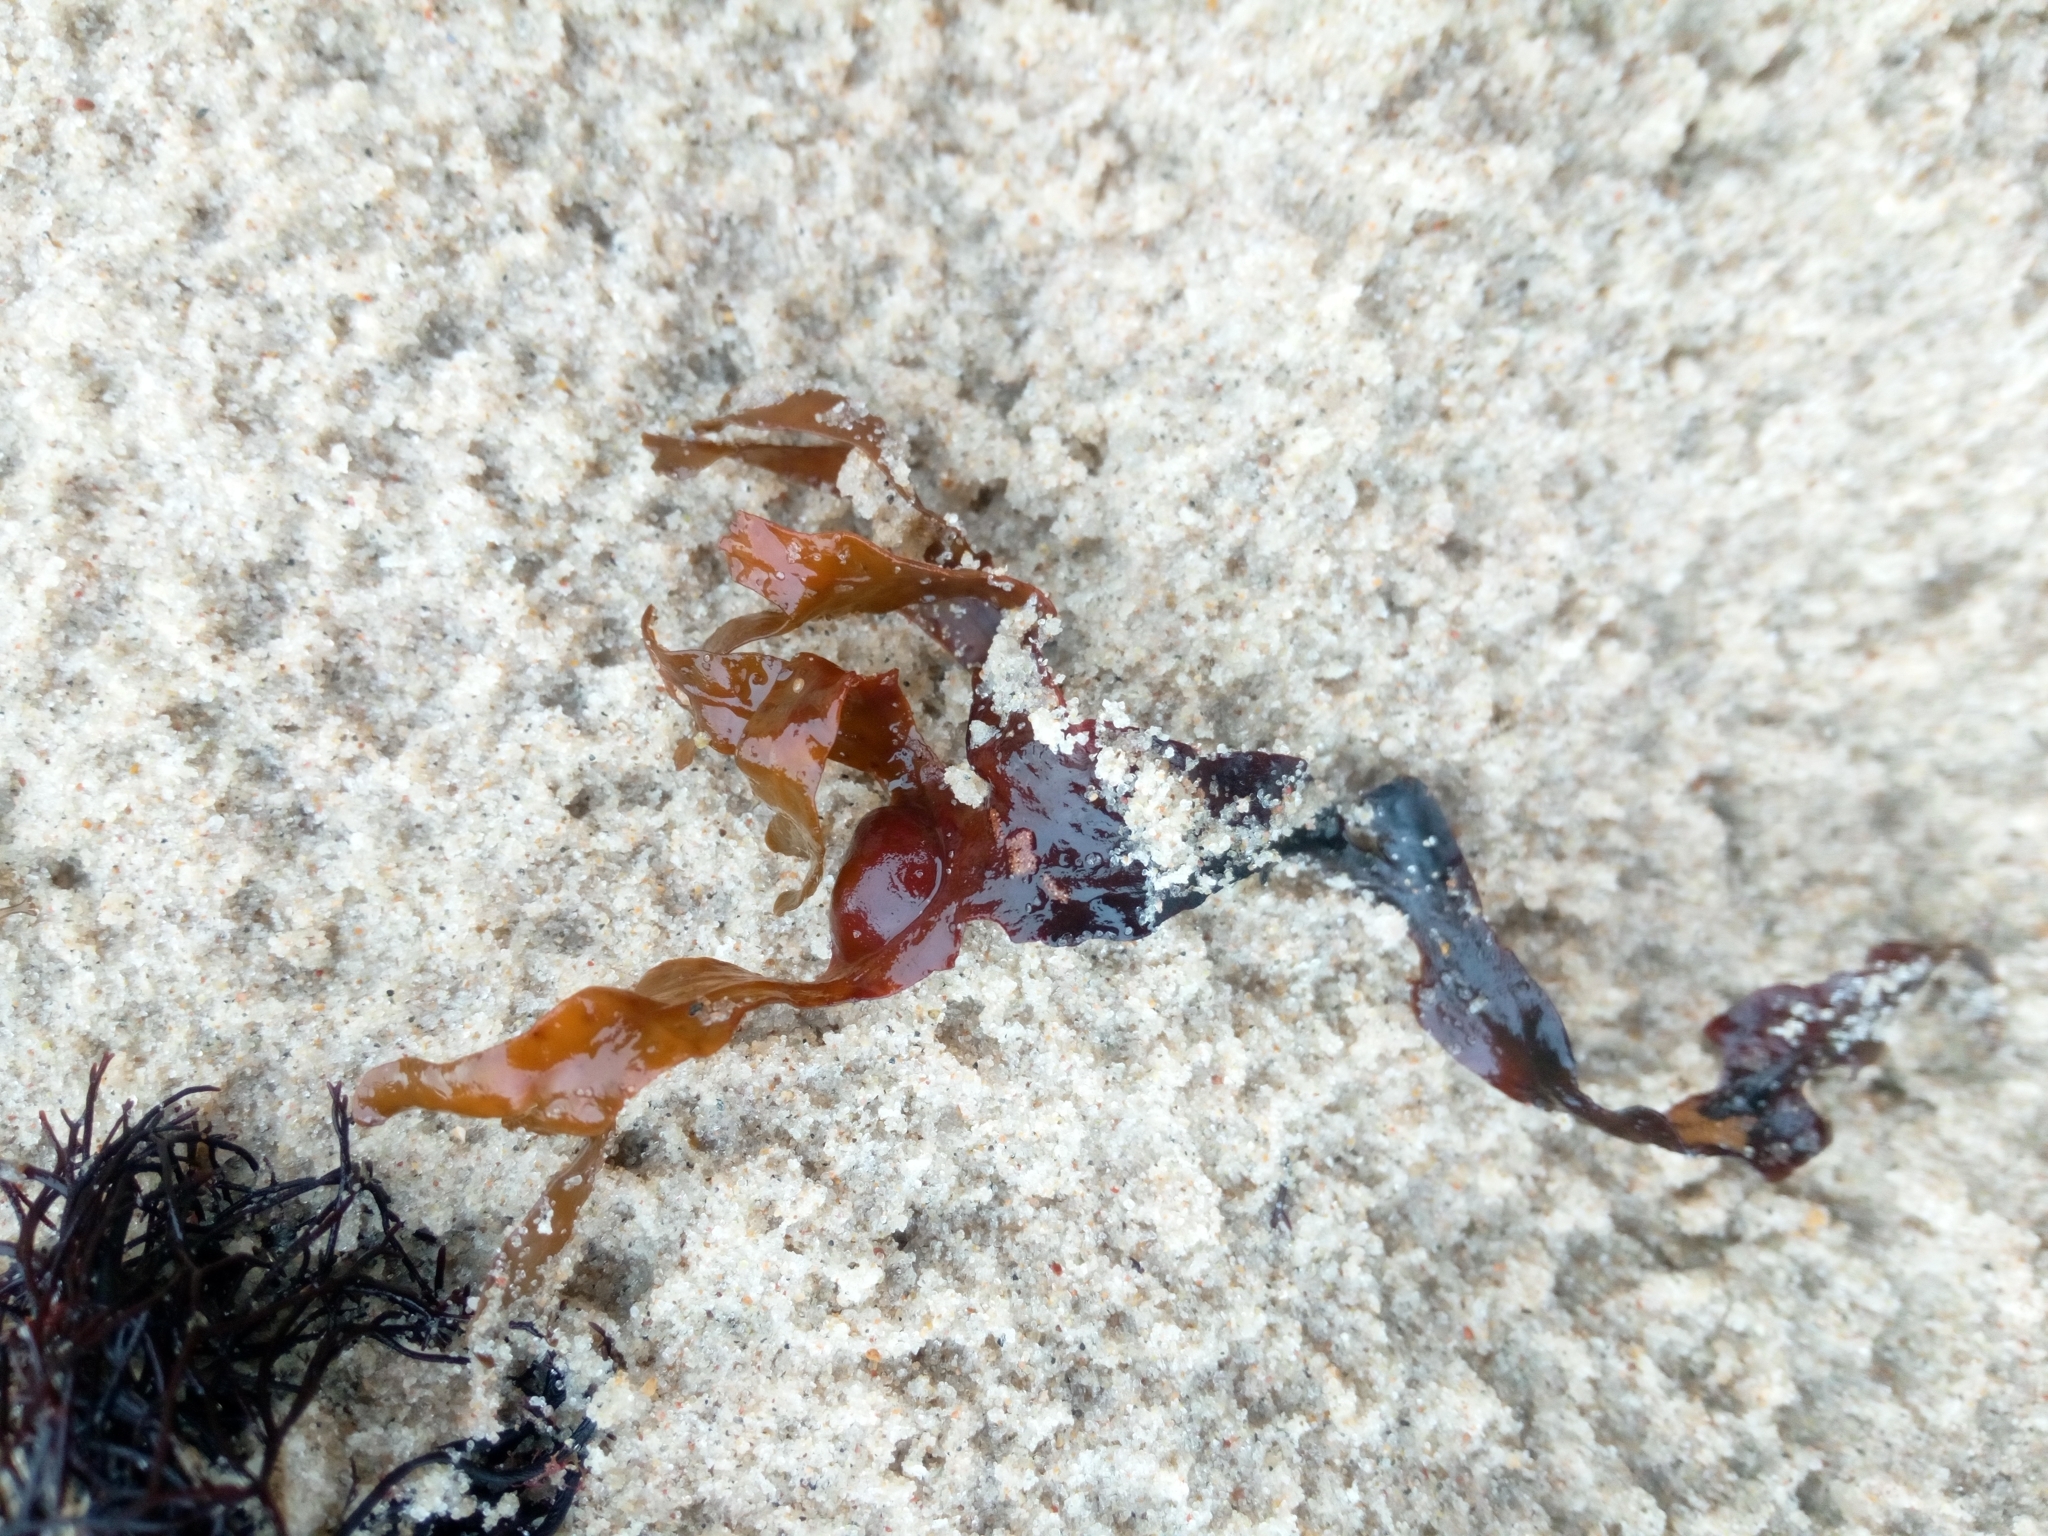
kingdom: Chromista
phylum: Ochrophyta
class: Phaeophyceae
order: Fucales
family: Fucaceae
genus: Fucus
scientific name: Fucus vesiculosus
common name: Bladder wrack
